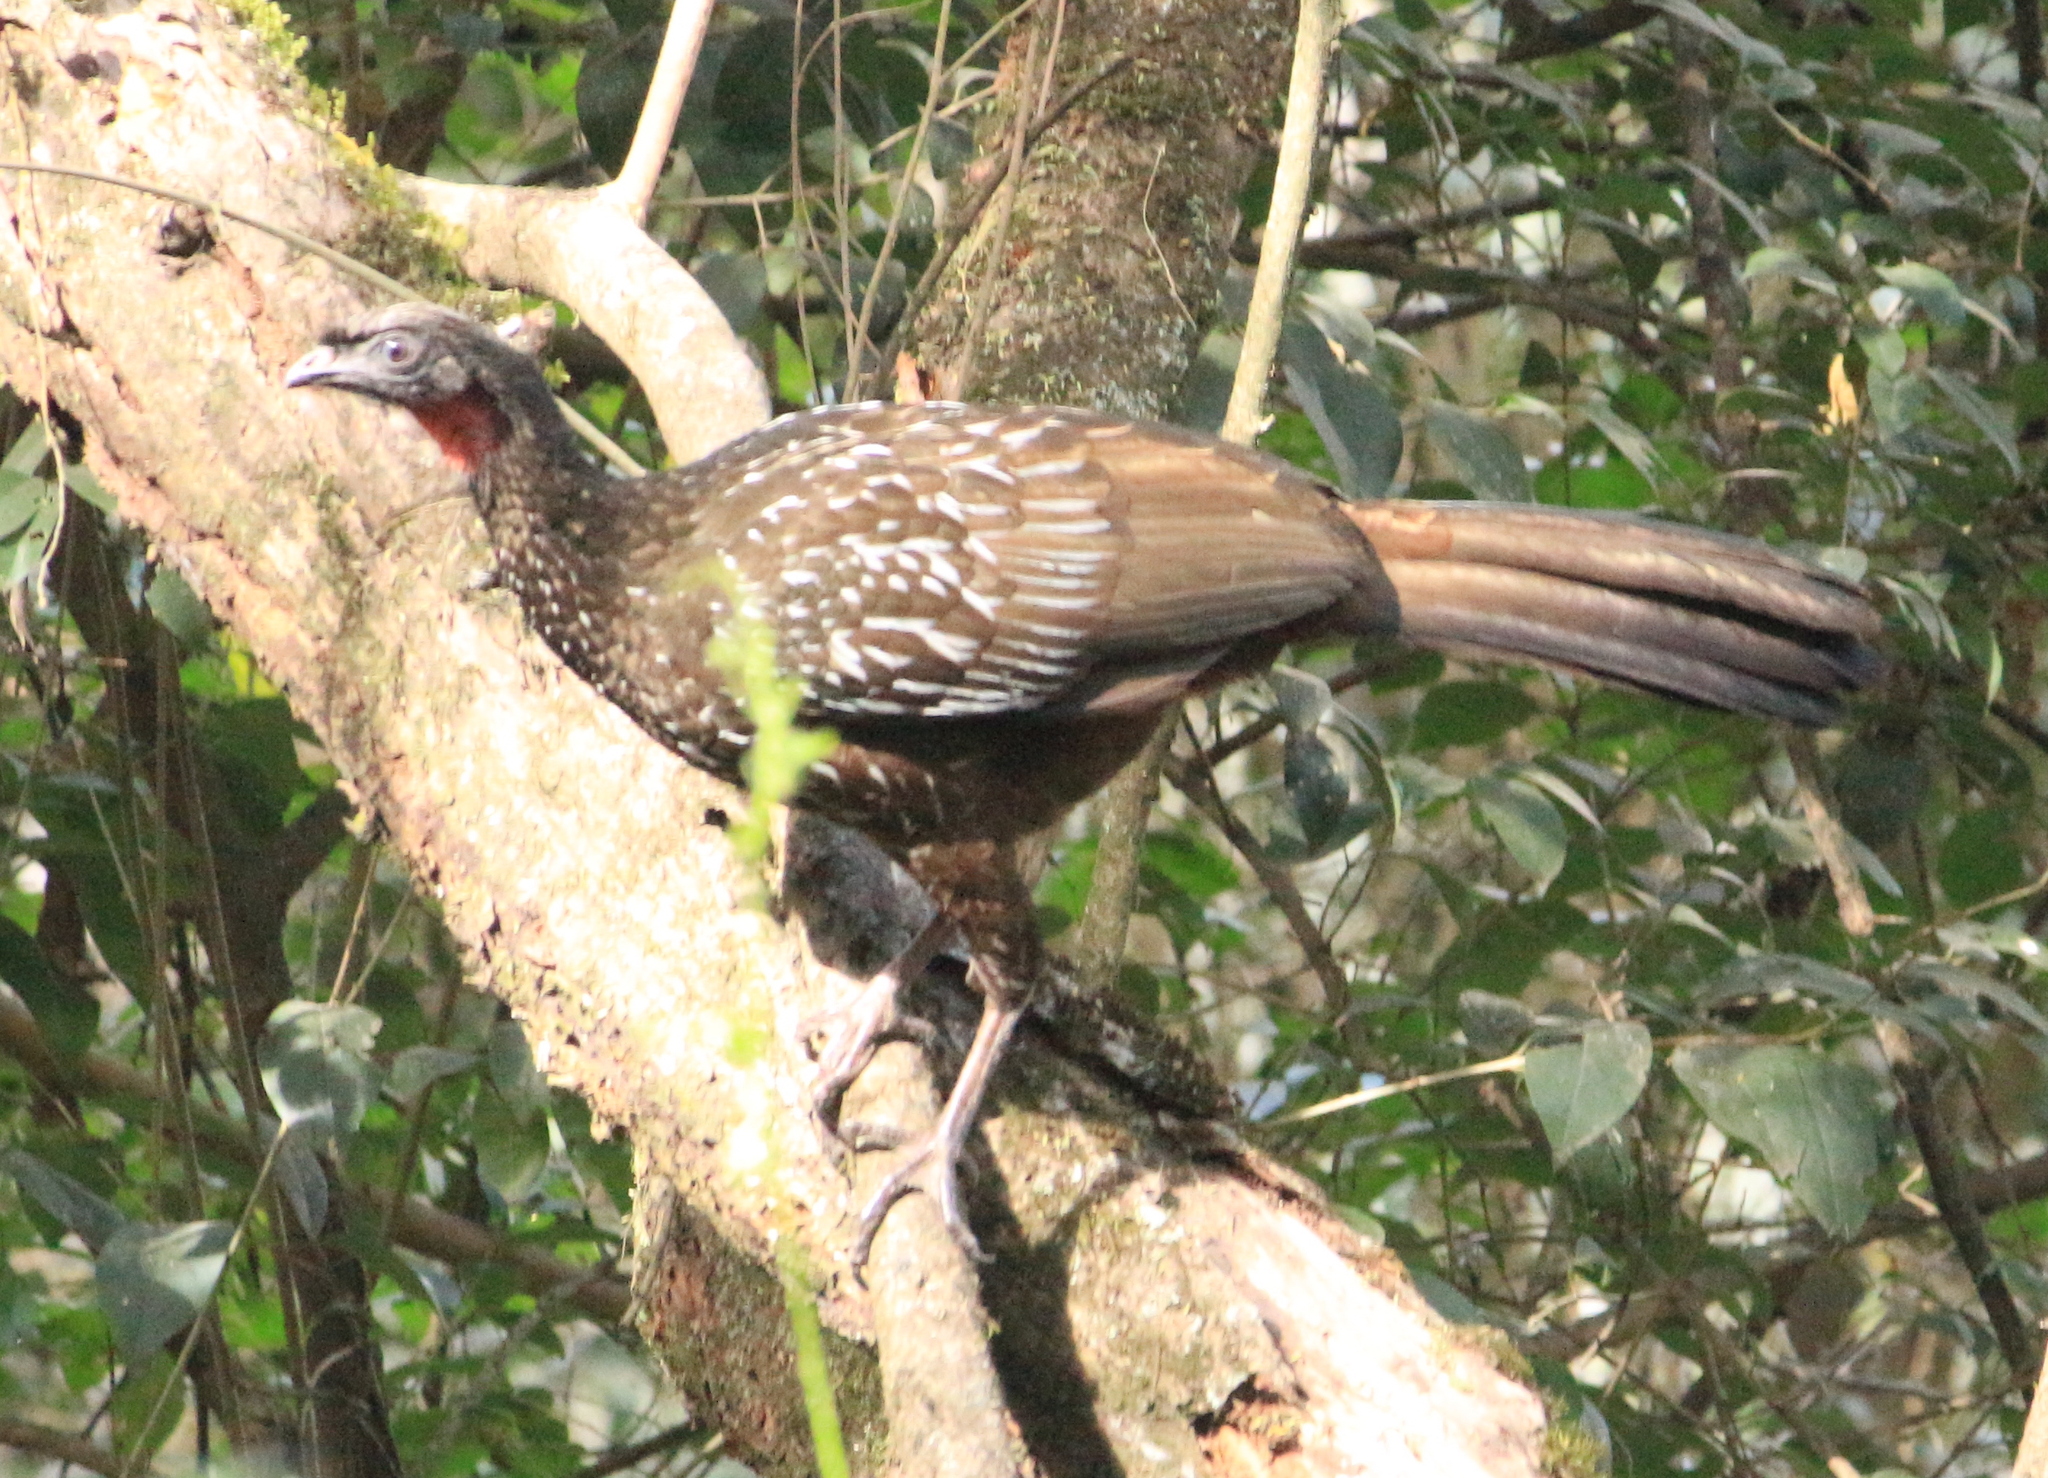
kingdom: Animalia
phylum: Chordata
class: Aves
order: Galliformes
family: Cracidae
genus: Penelope
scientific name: Penelope bridgesi
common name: Yungas guan
